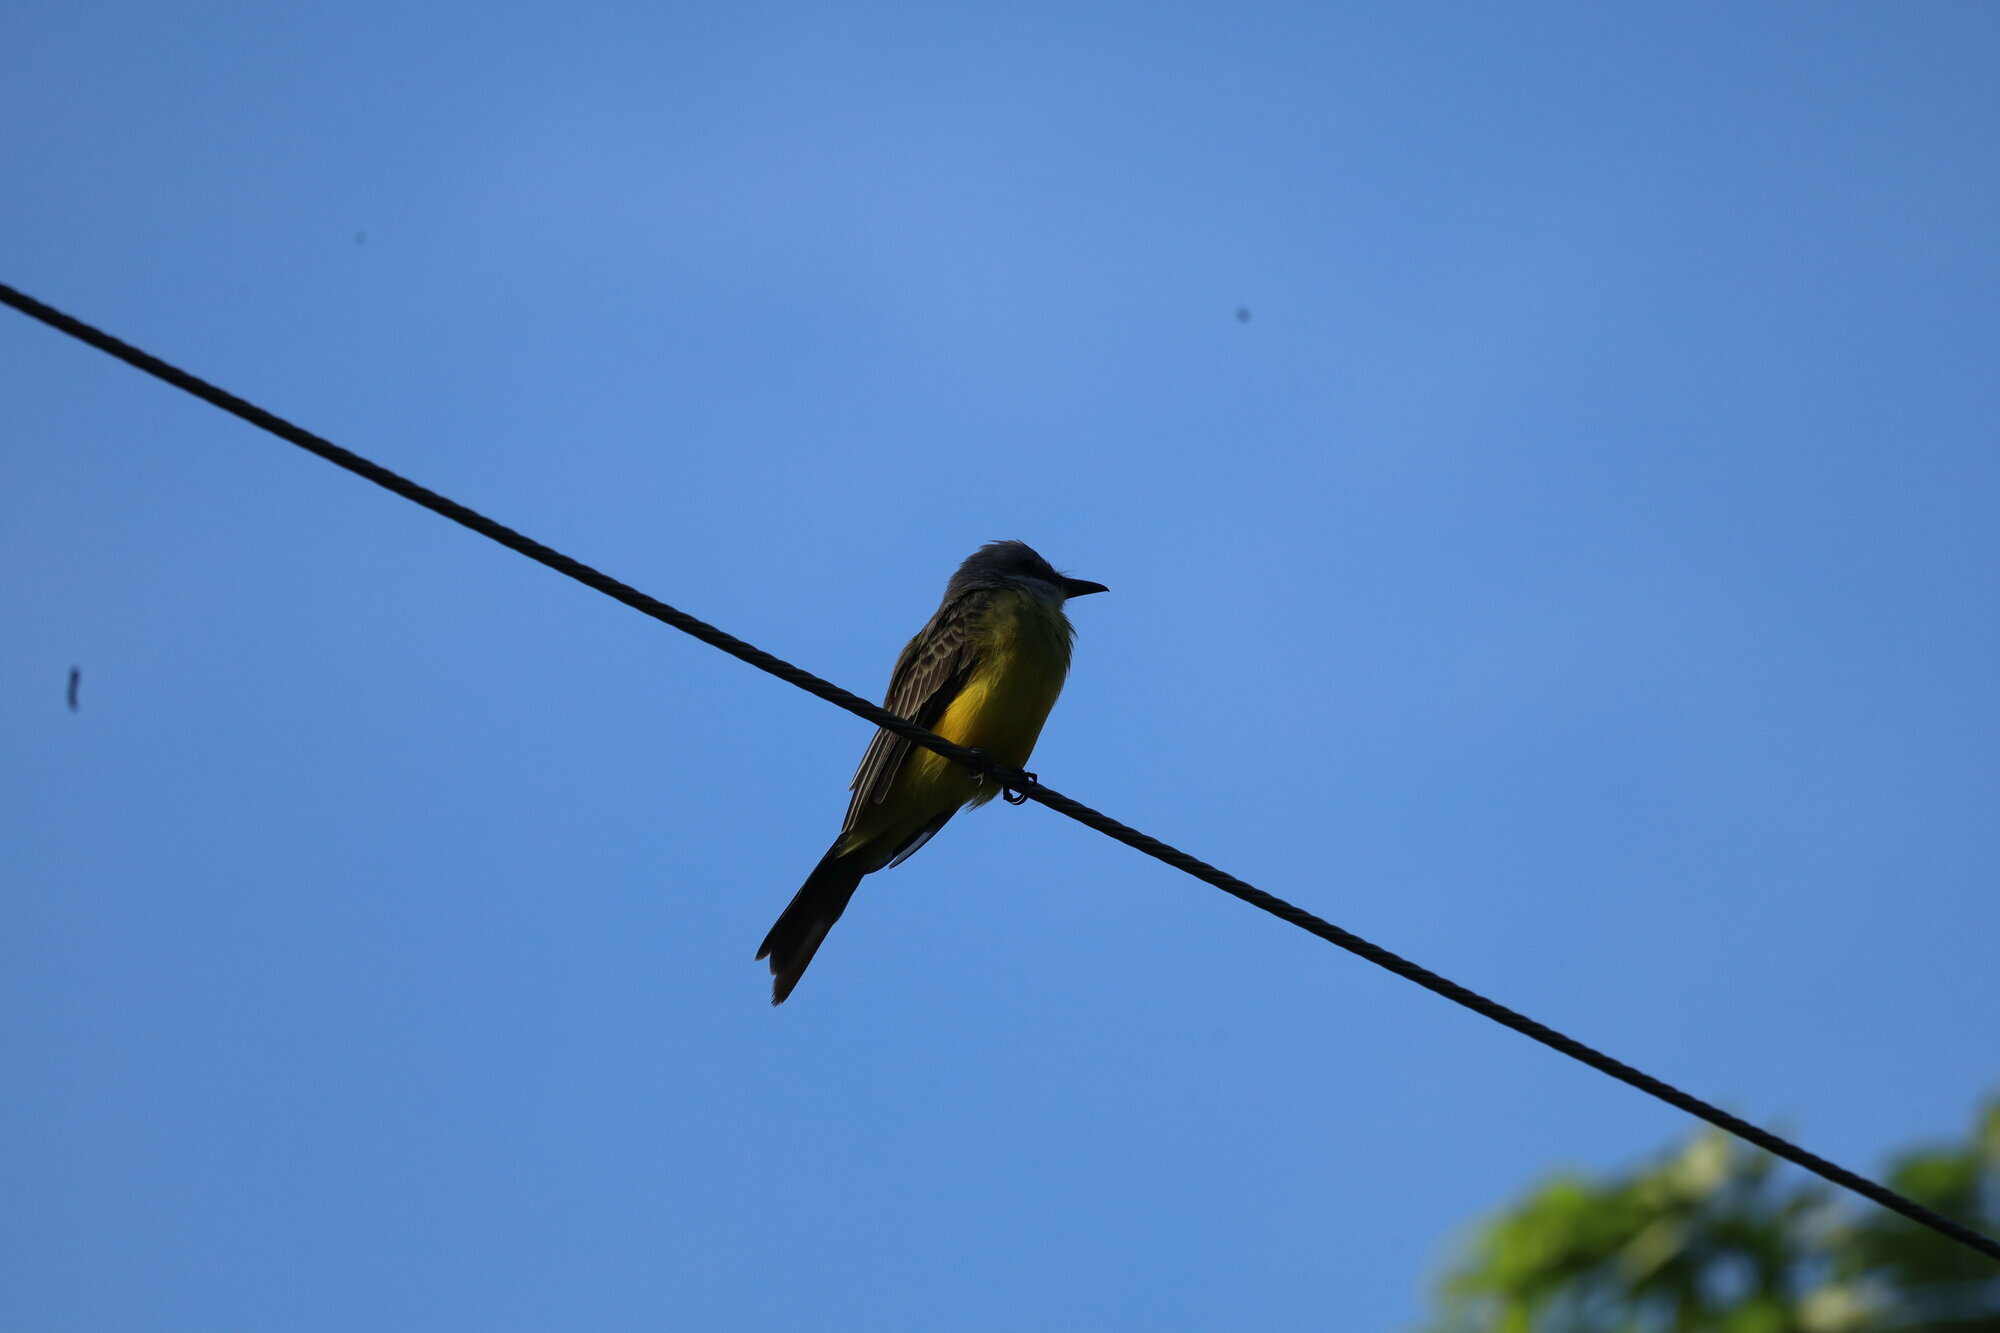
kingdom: Animalia
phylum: Chordata
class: Aves
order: Passeriformes
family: Tyrannidae
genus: Tyrannus
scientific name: Tyrannus melancholicus
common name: Tropical kingbird
